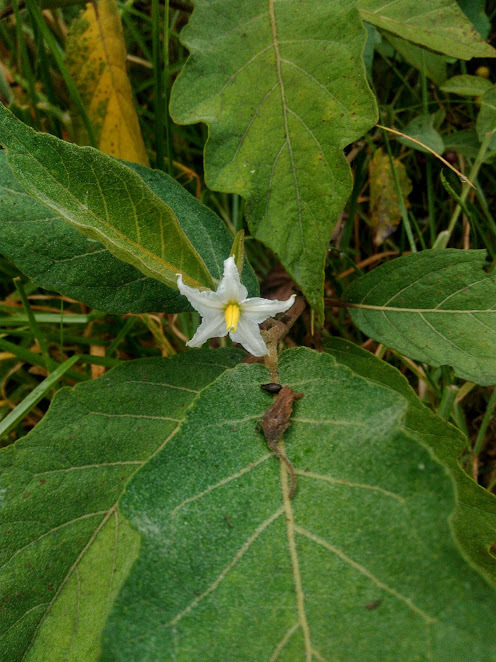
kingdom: Plantae
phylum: Tracheophyta
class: Magnoliopsida
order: Solanales
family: Solanaceae
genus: Solanum
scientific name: Solanum stellatiglandulosum
